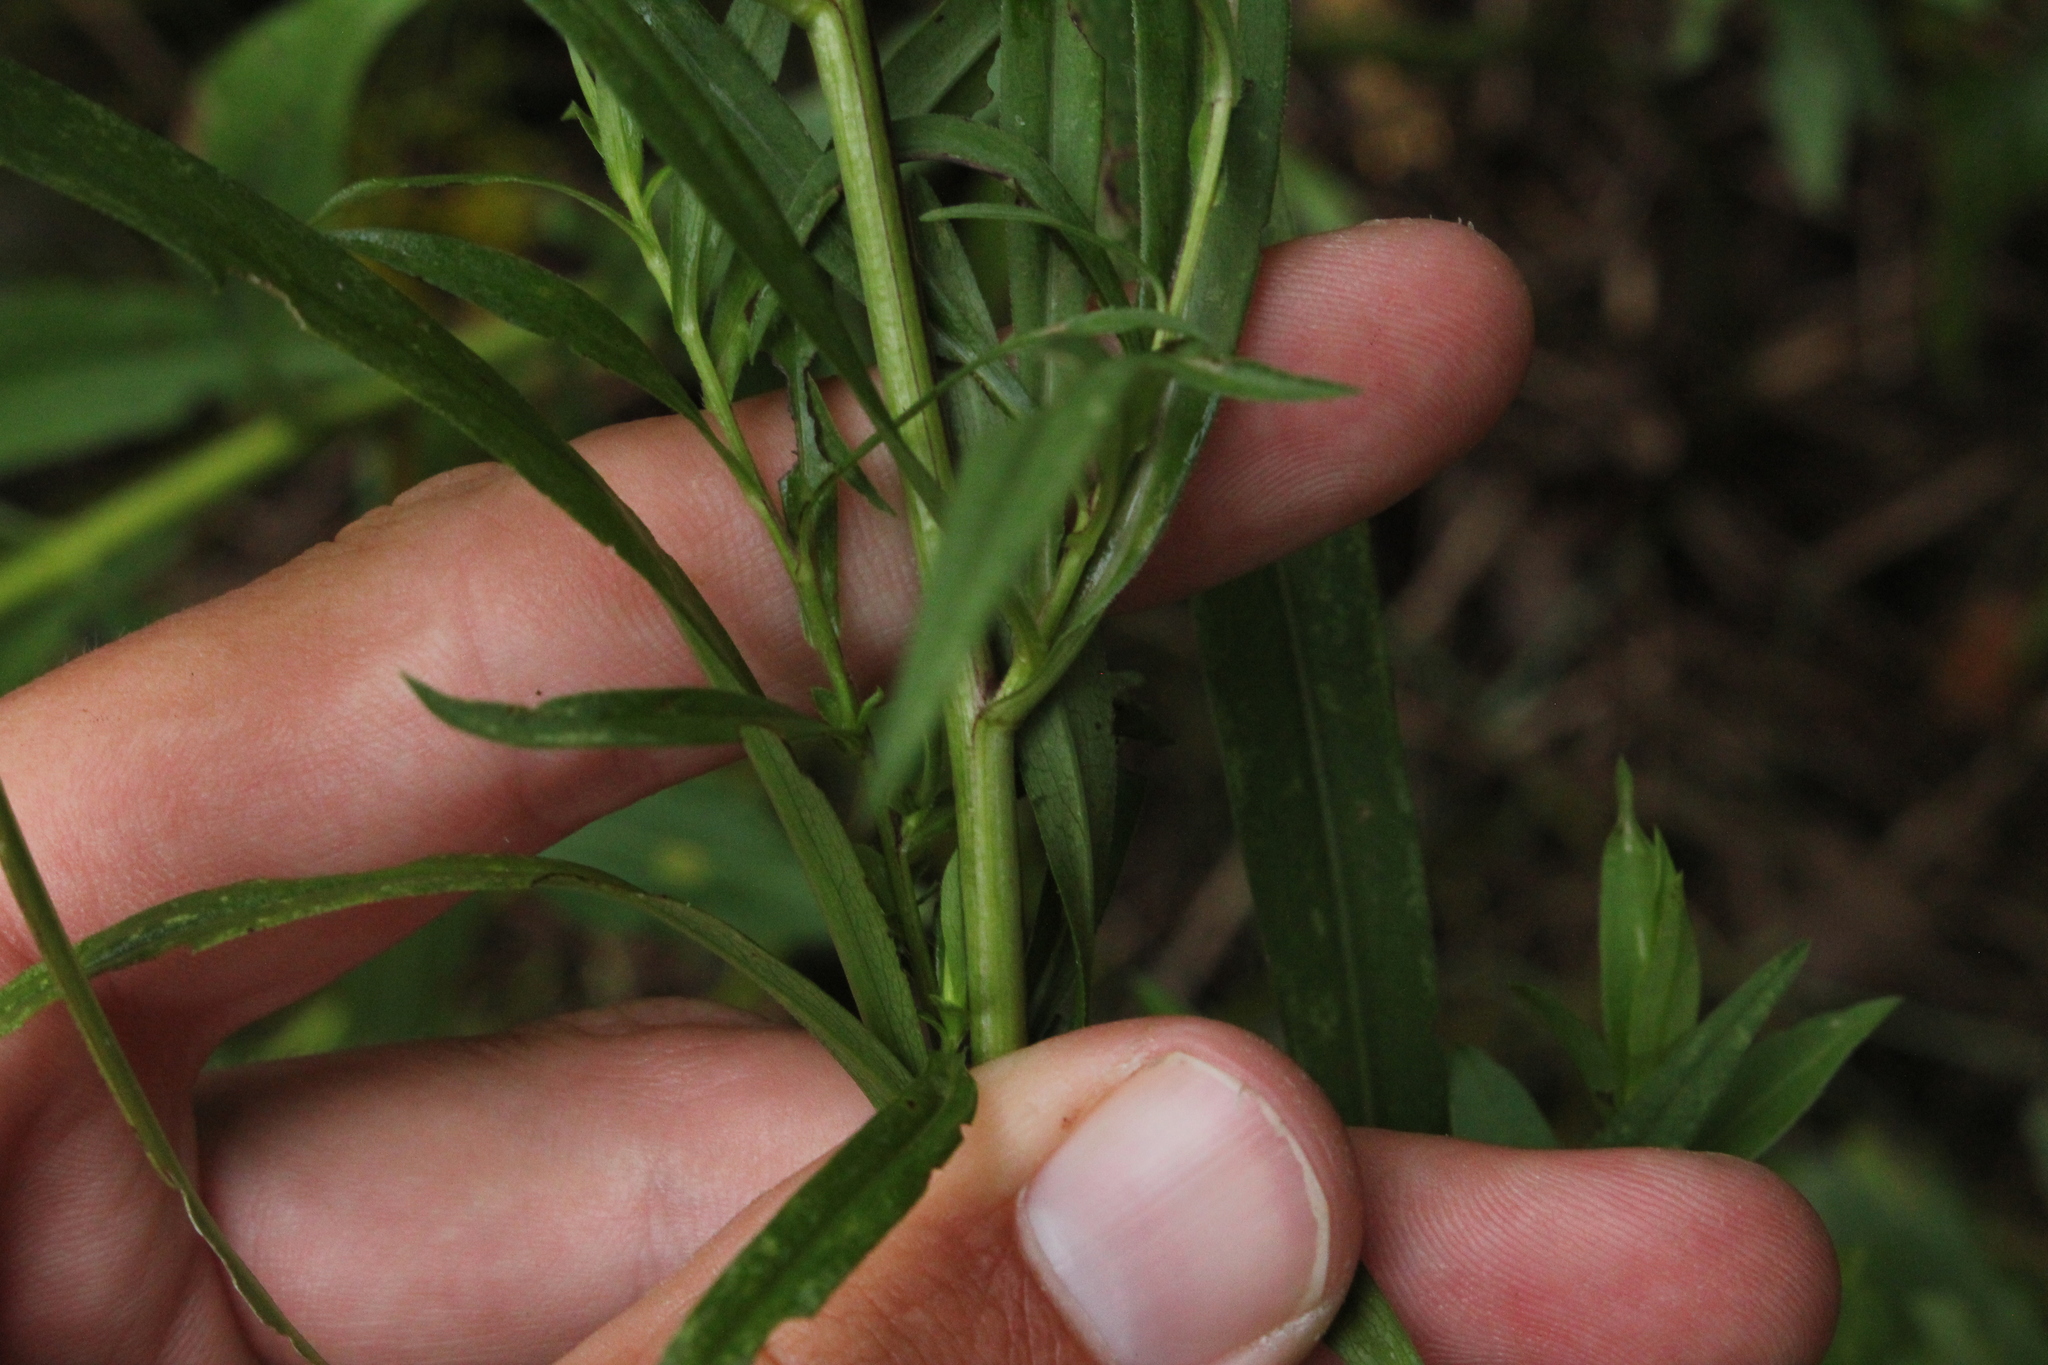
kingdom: Plantae
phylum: Tracheophyta
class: Magnoliopsida
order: Asterales
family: Asteraceae
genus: Symphyotrichum
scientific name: Symphyotrichum lanceolatum
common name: Panicled aster
